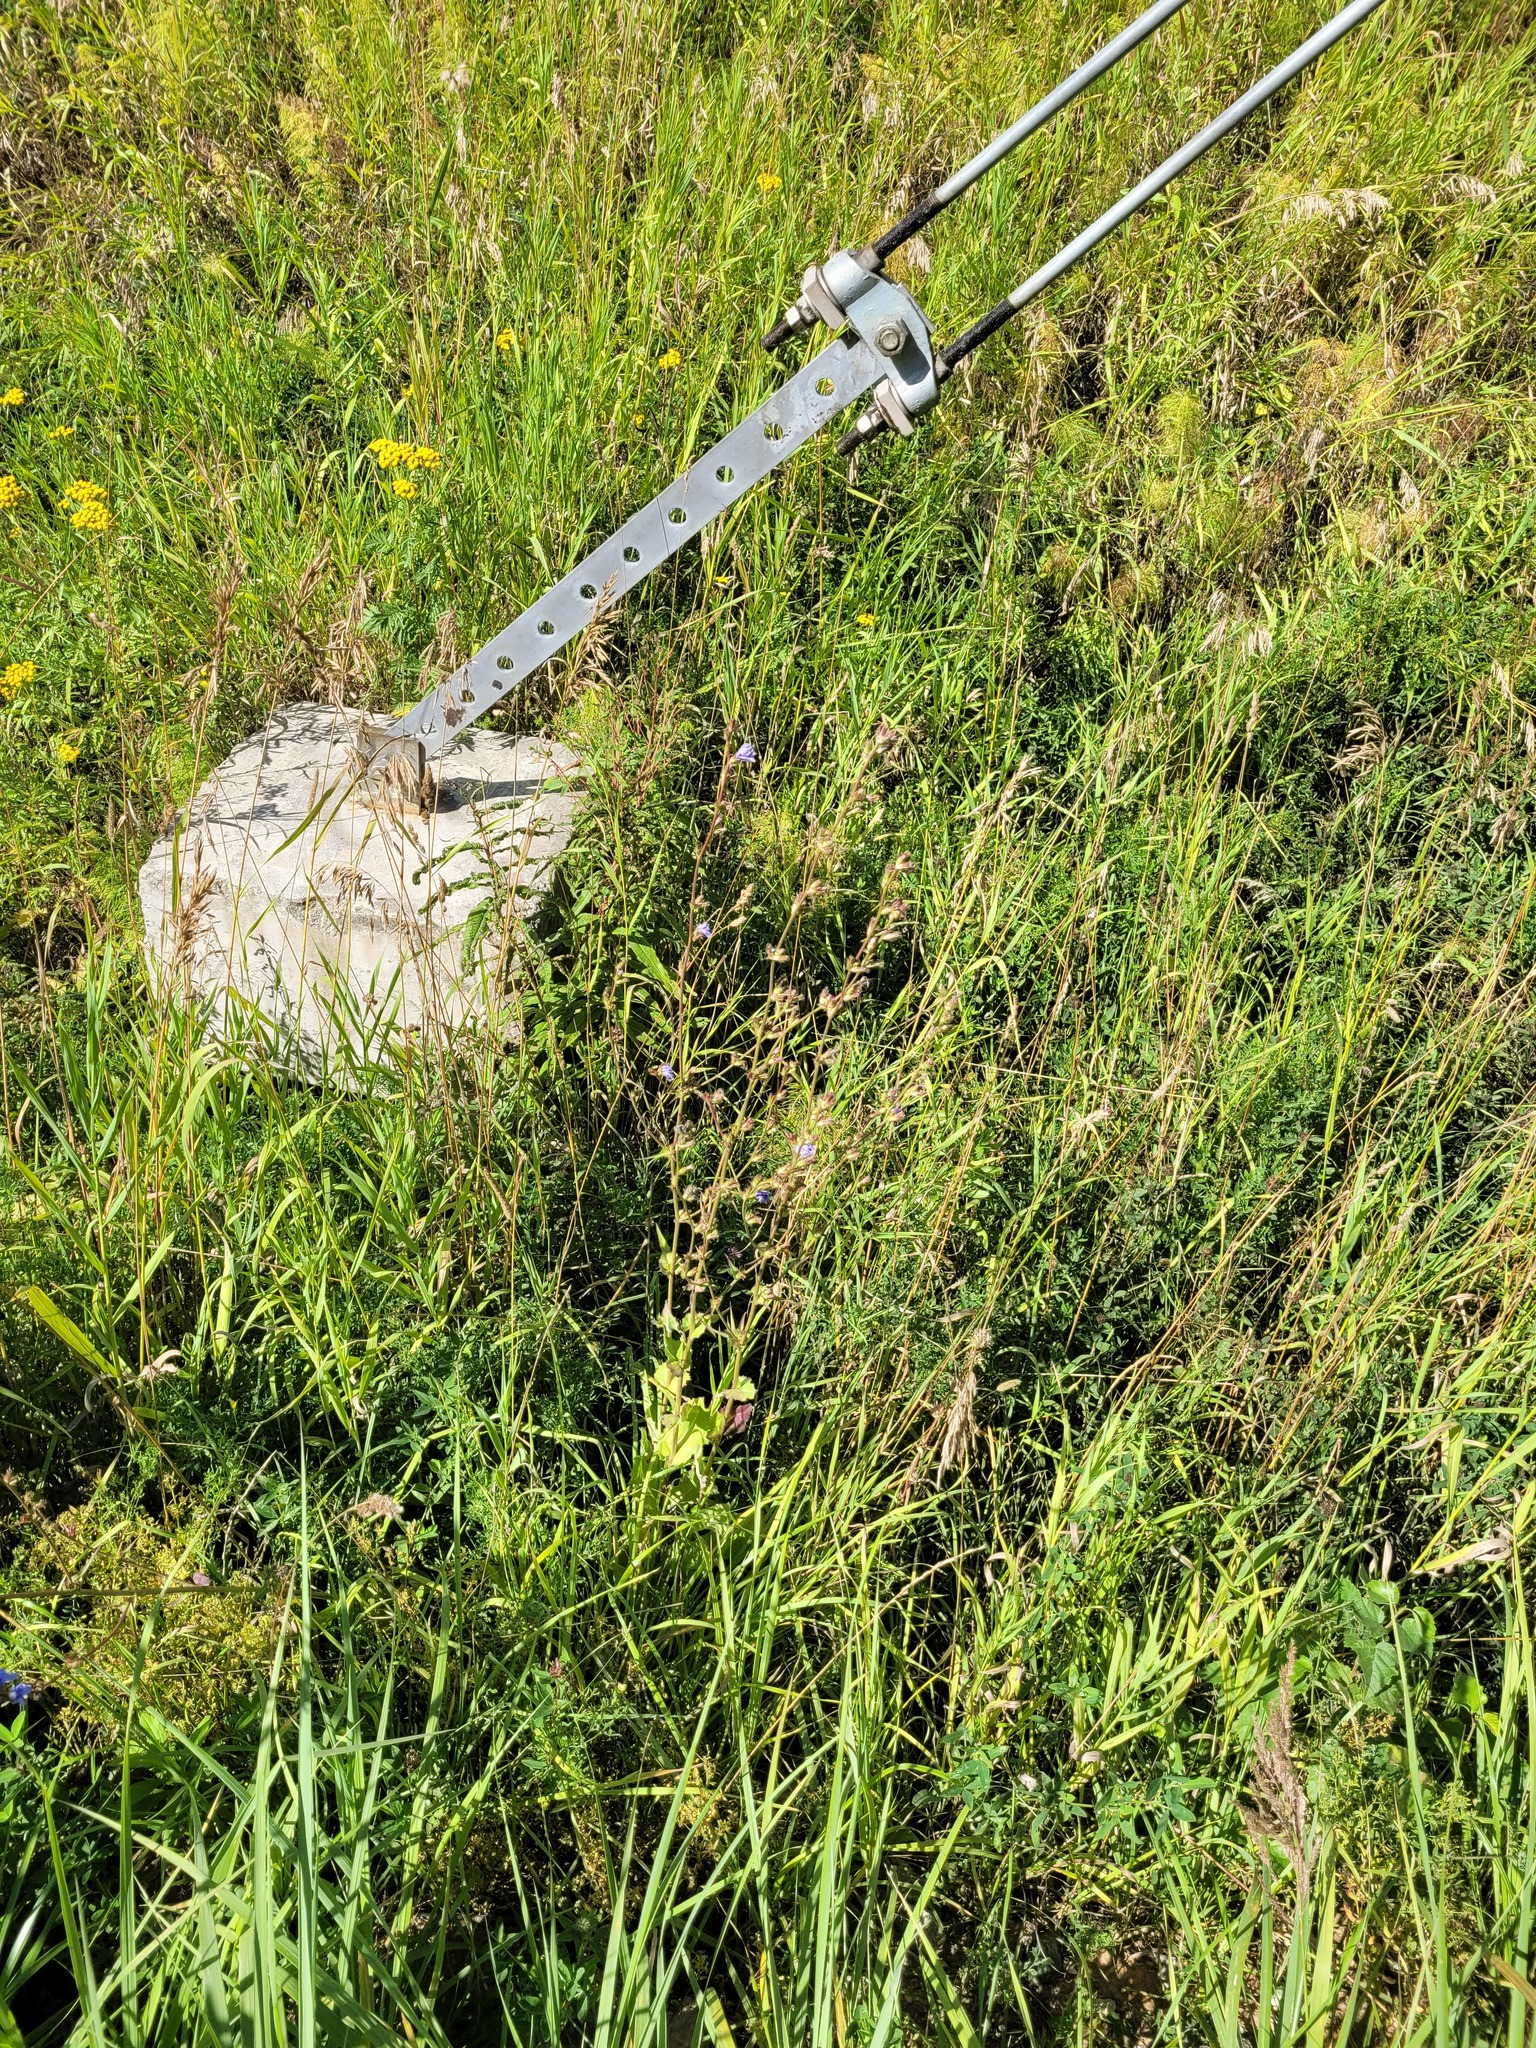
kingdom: Plantae
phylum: Tracheophyta
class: Magnoliopsida
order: Asterales
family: Asteraceae
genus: Cichorium
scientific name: Cichorium intybus
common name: Chicory
